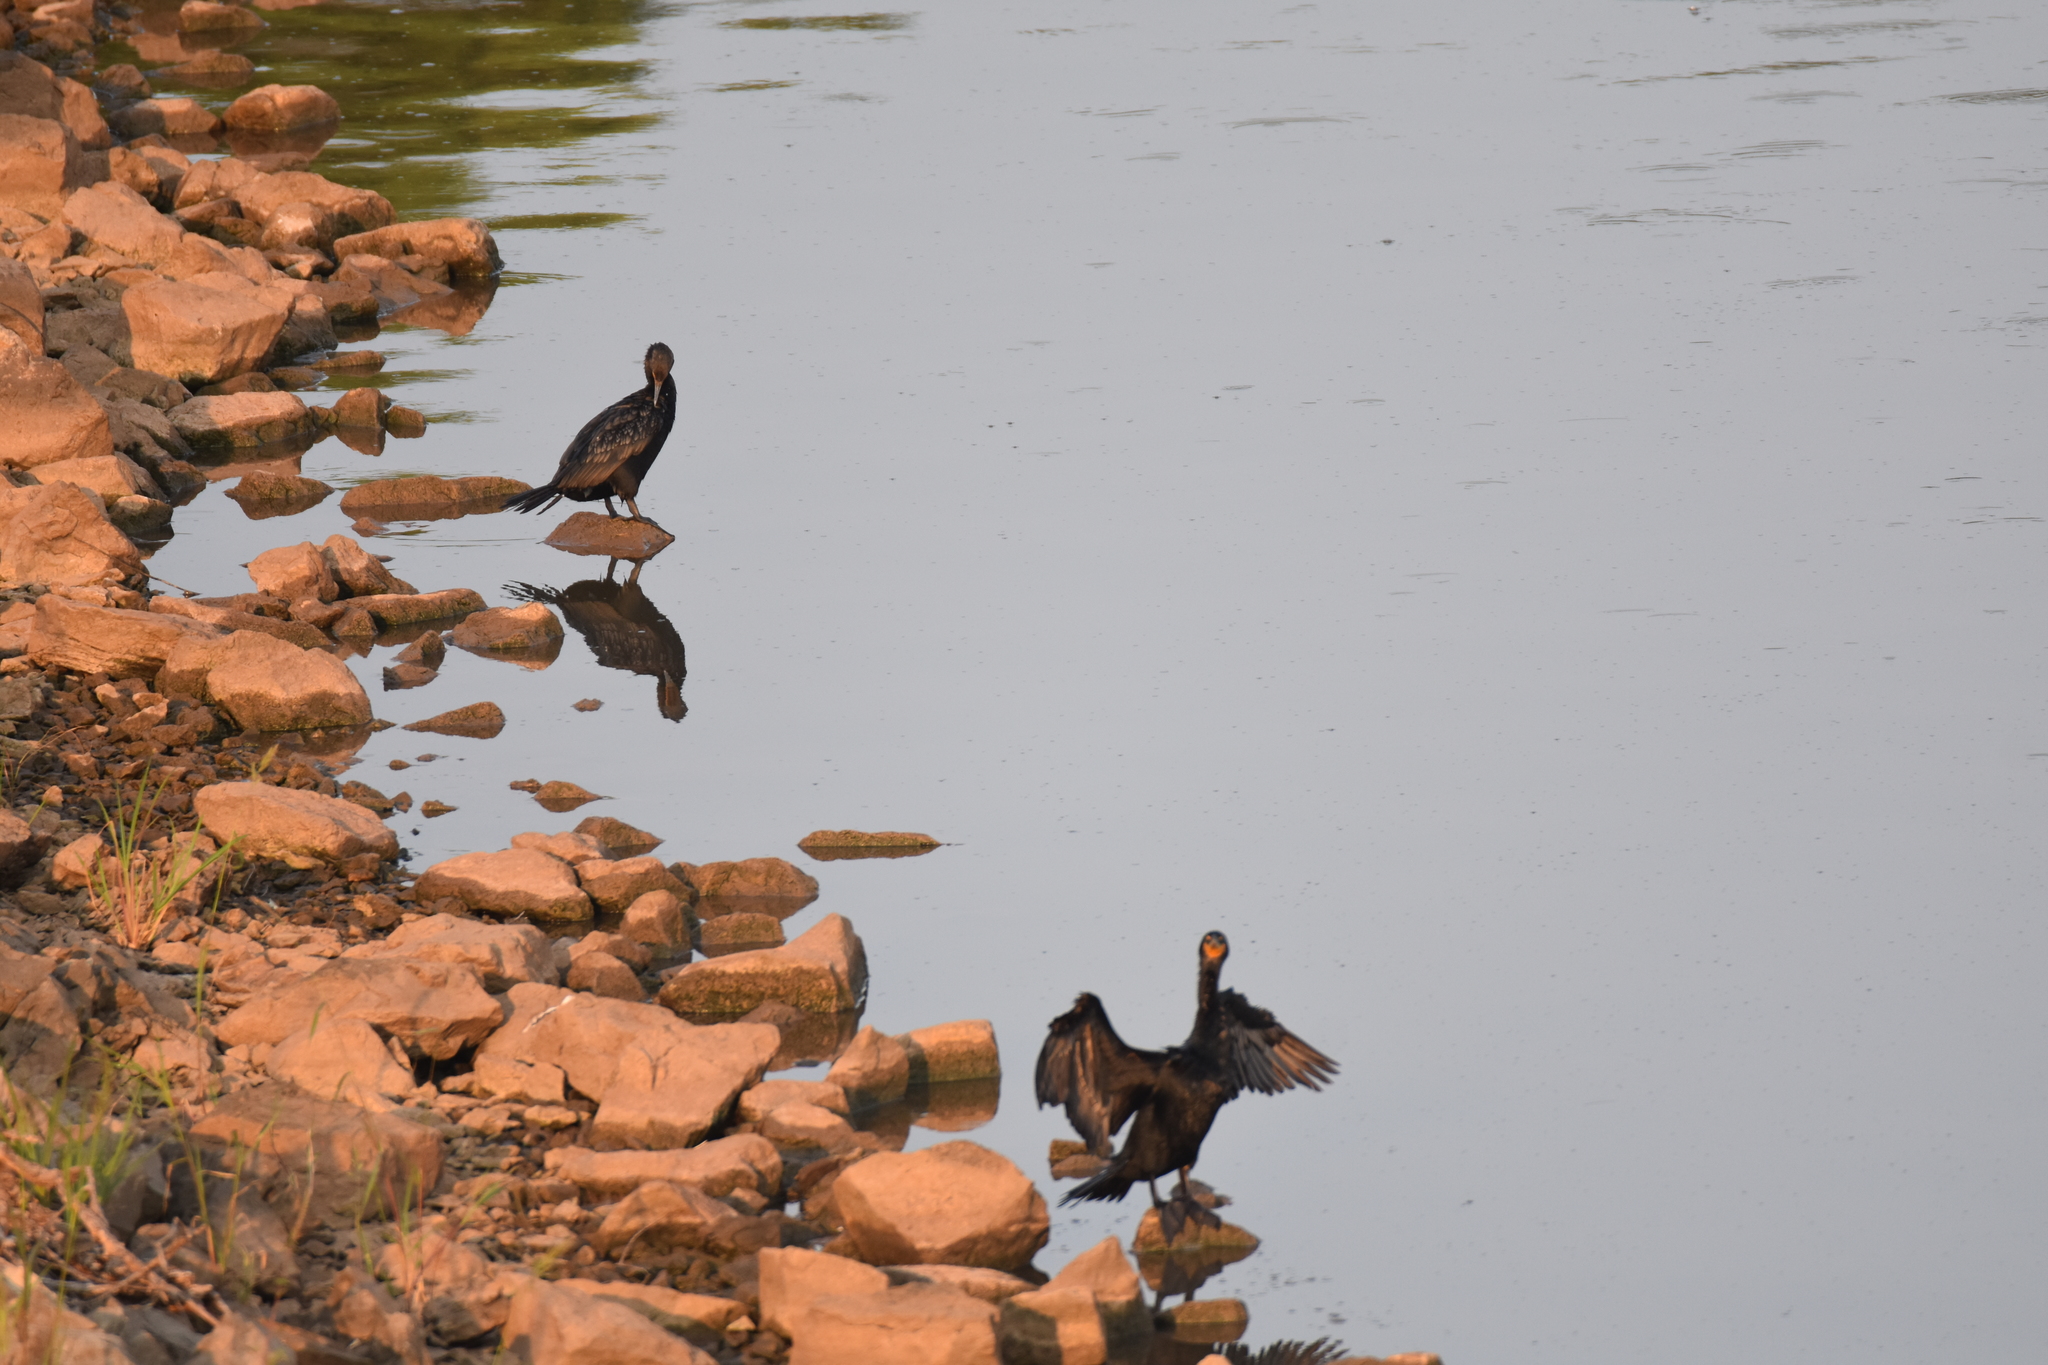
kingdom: Animalia
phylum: Chordata
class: Aves
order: Suliformes
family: Phalacrocoracidae
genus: Phalacrocorax
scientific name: Phalacrocorax auritus
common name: Double-crested cormorant
